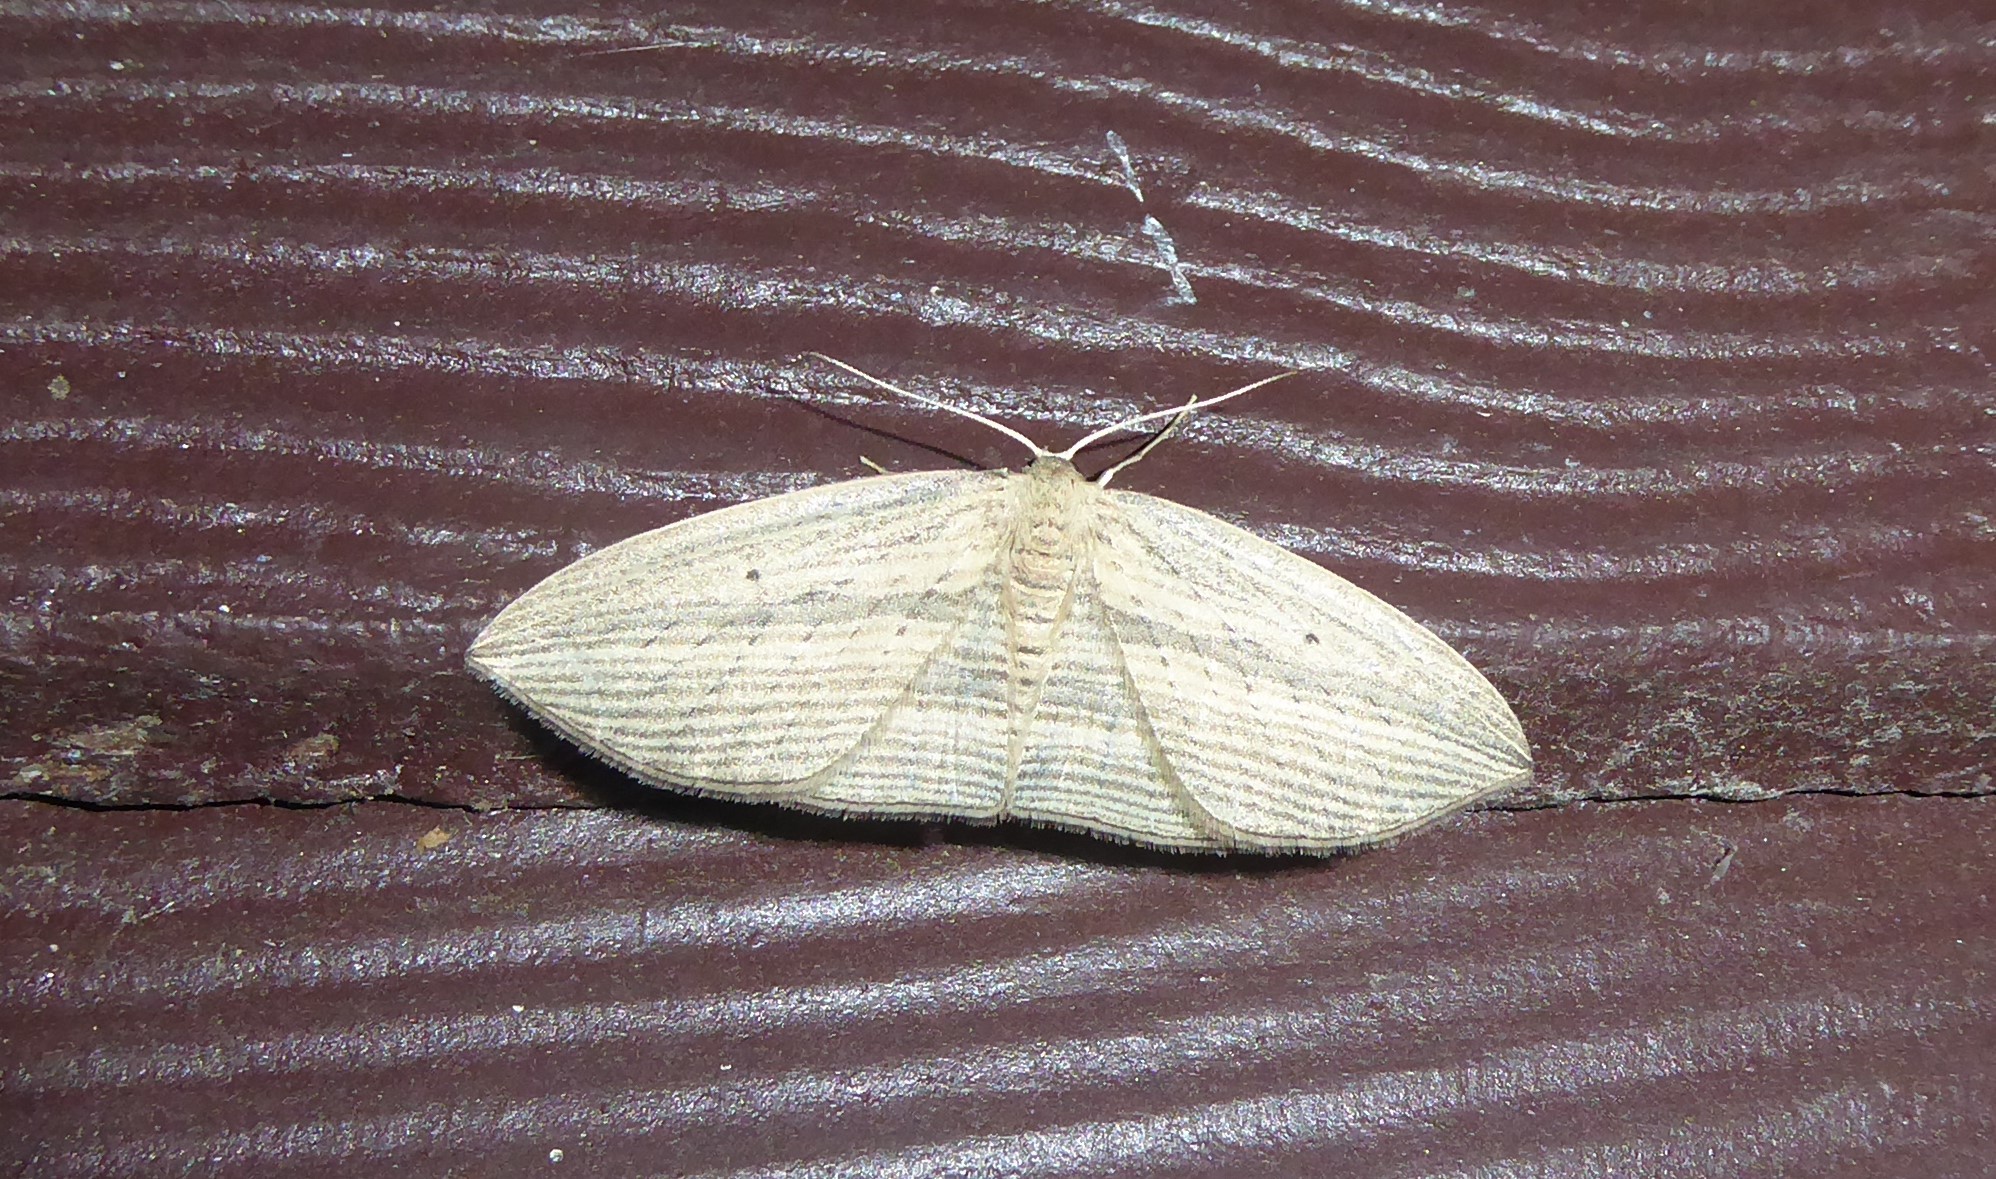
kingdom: Animalia
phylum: Arthropoda
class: Insecta
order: Lepidoptera
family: Geometridae
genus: Epiphryne
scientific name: Epiphryne verriculata
